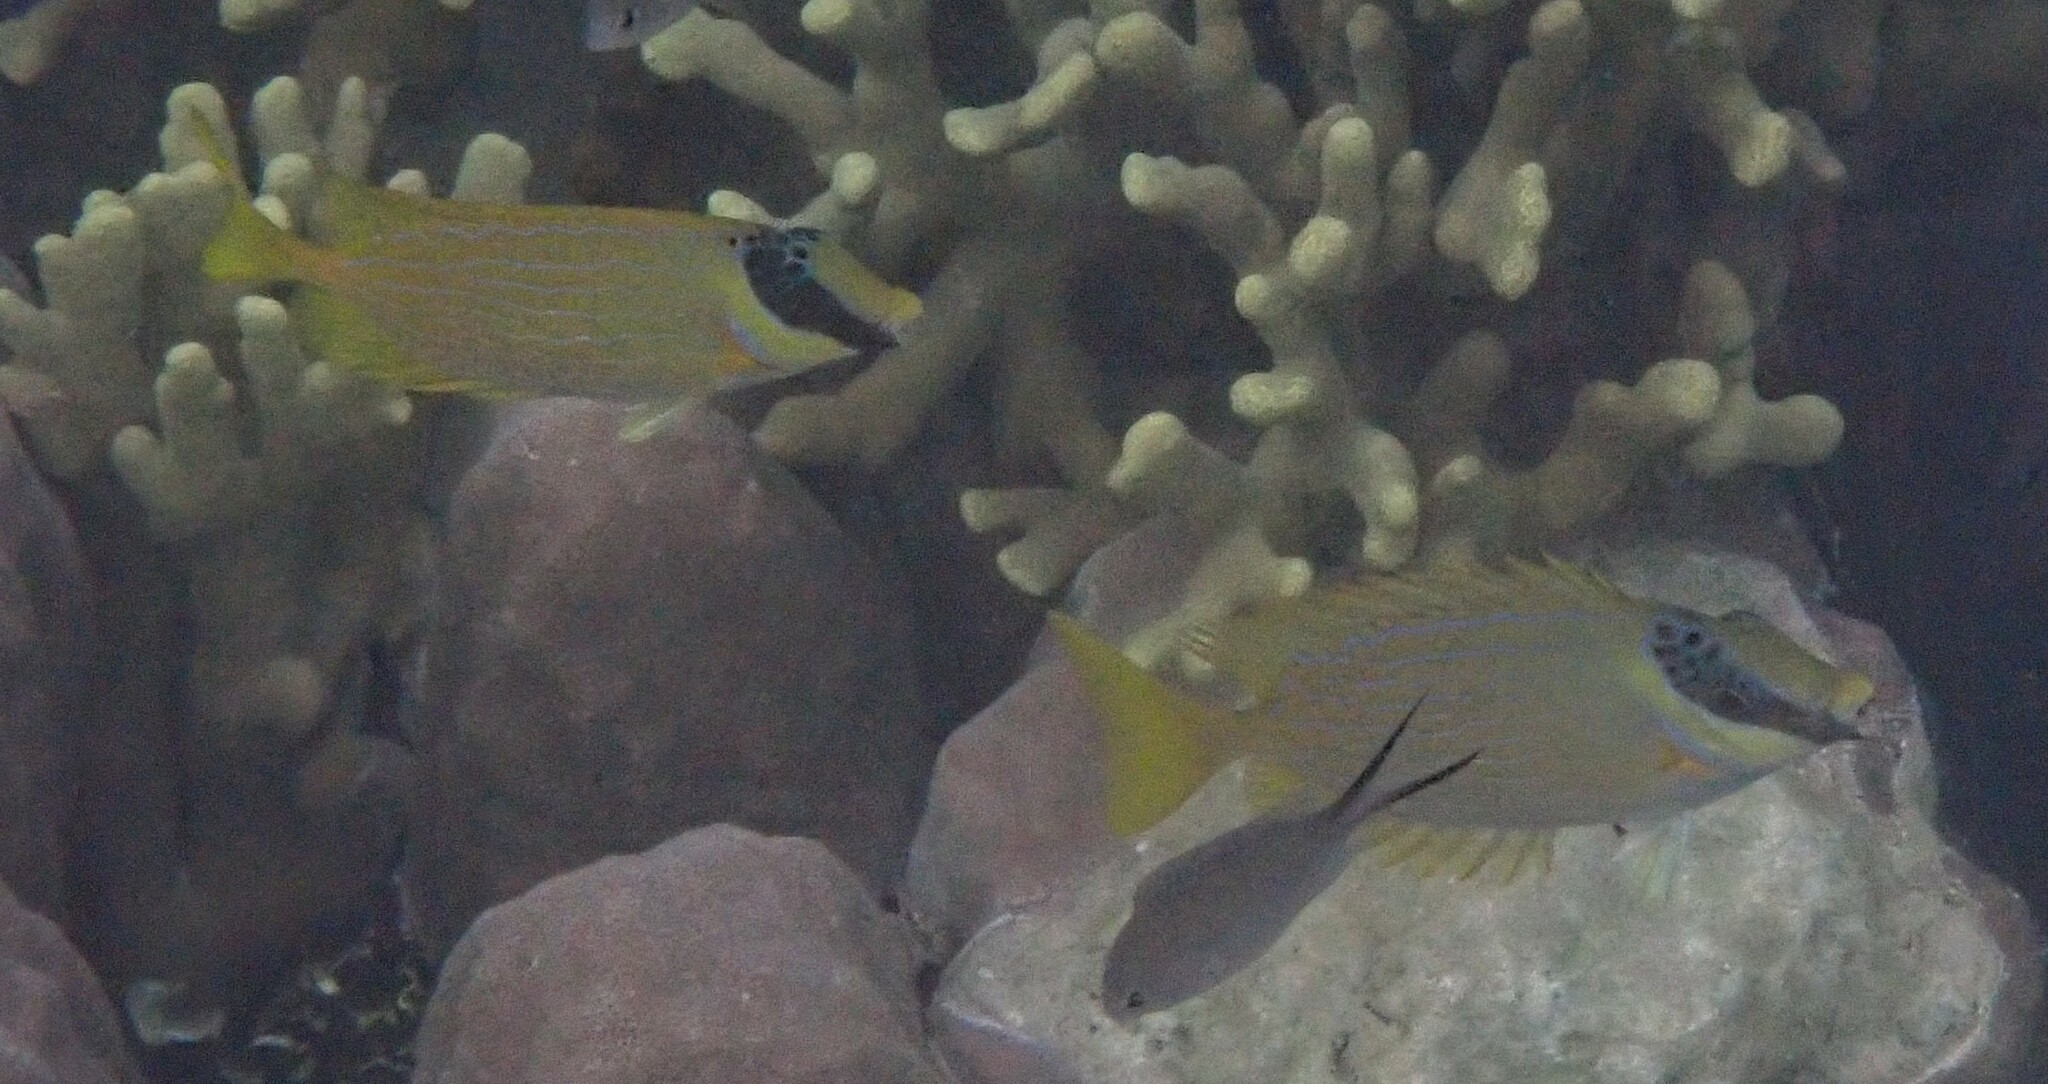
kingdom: Animalia
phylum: Chordata
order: Perciformes
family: Siganidae
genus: Siganus
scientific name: Siganus puellus
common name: Masked rabbitfish
